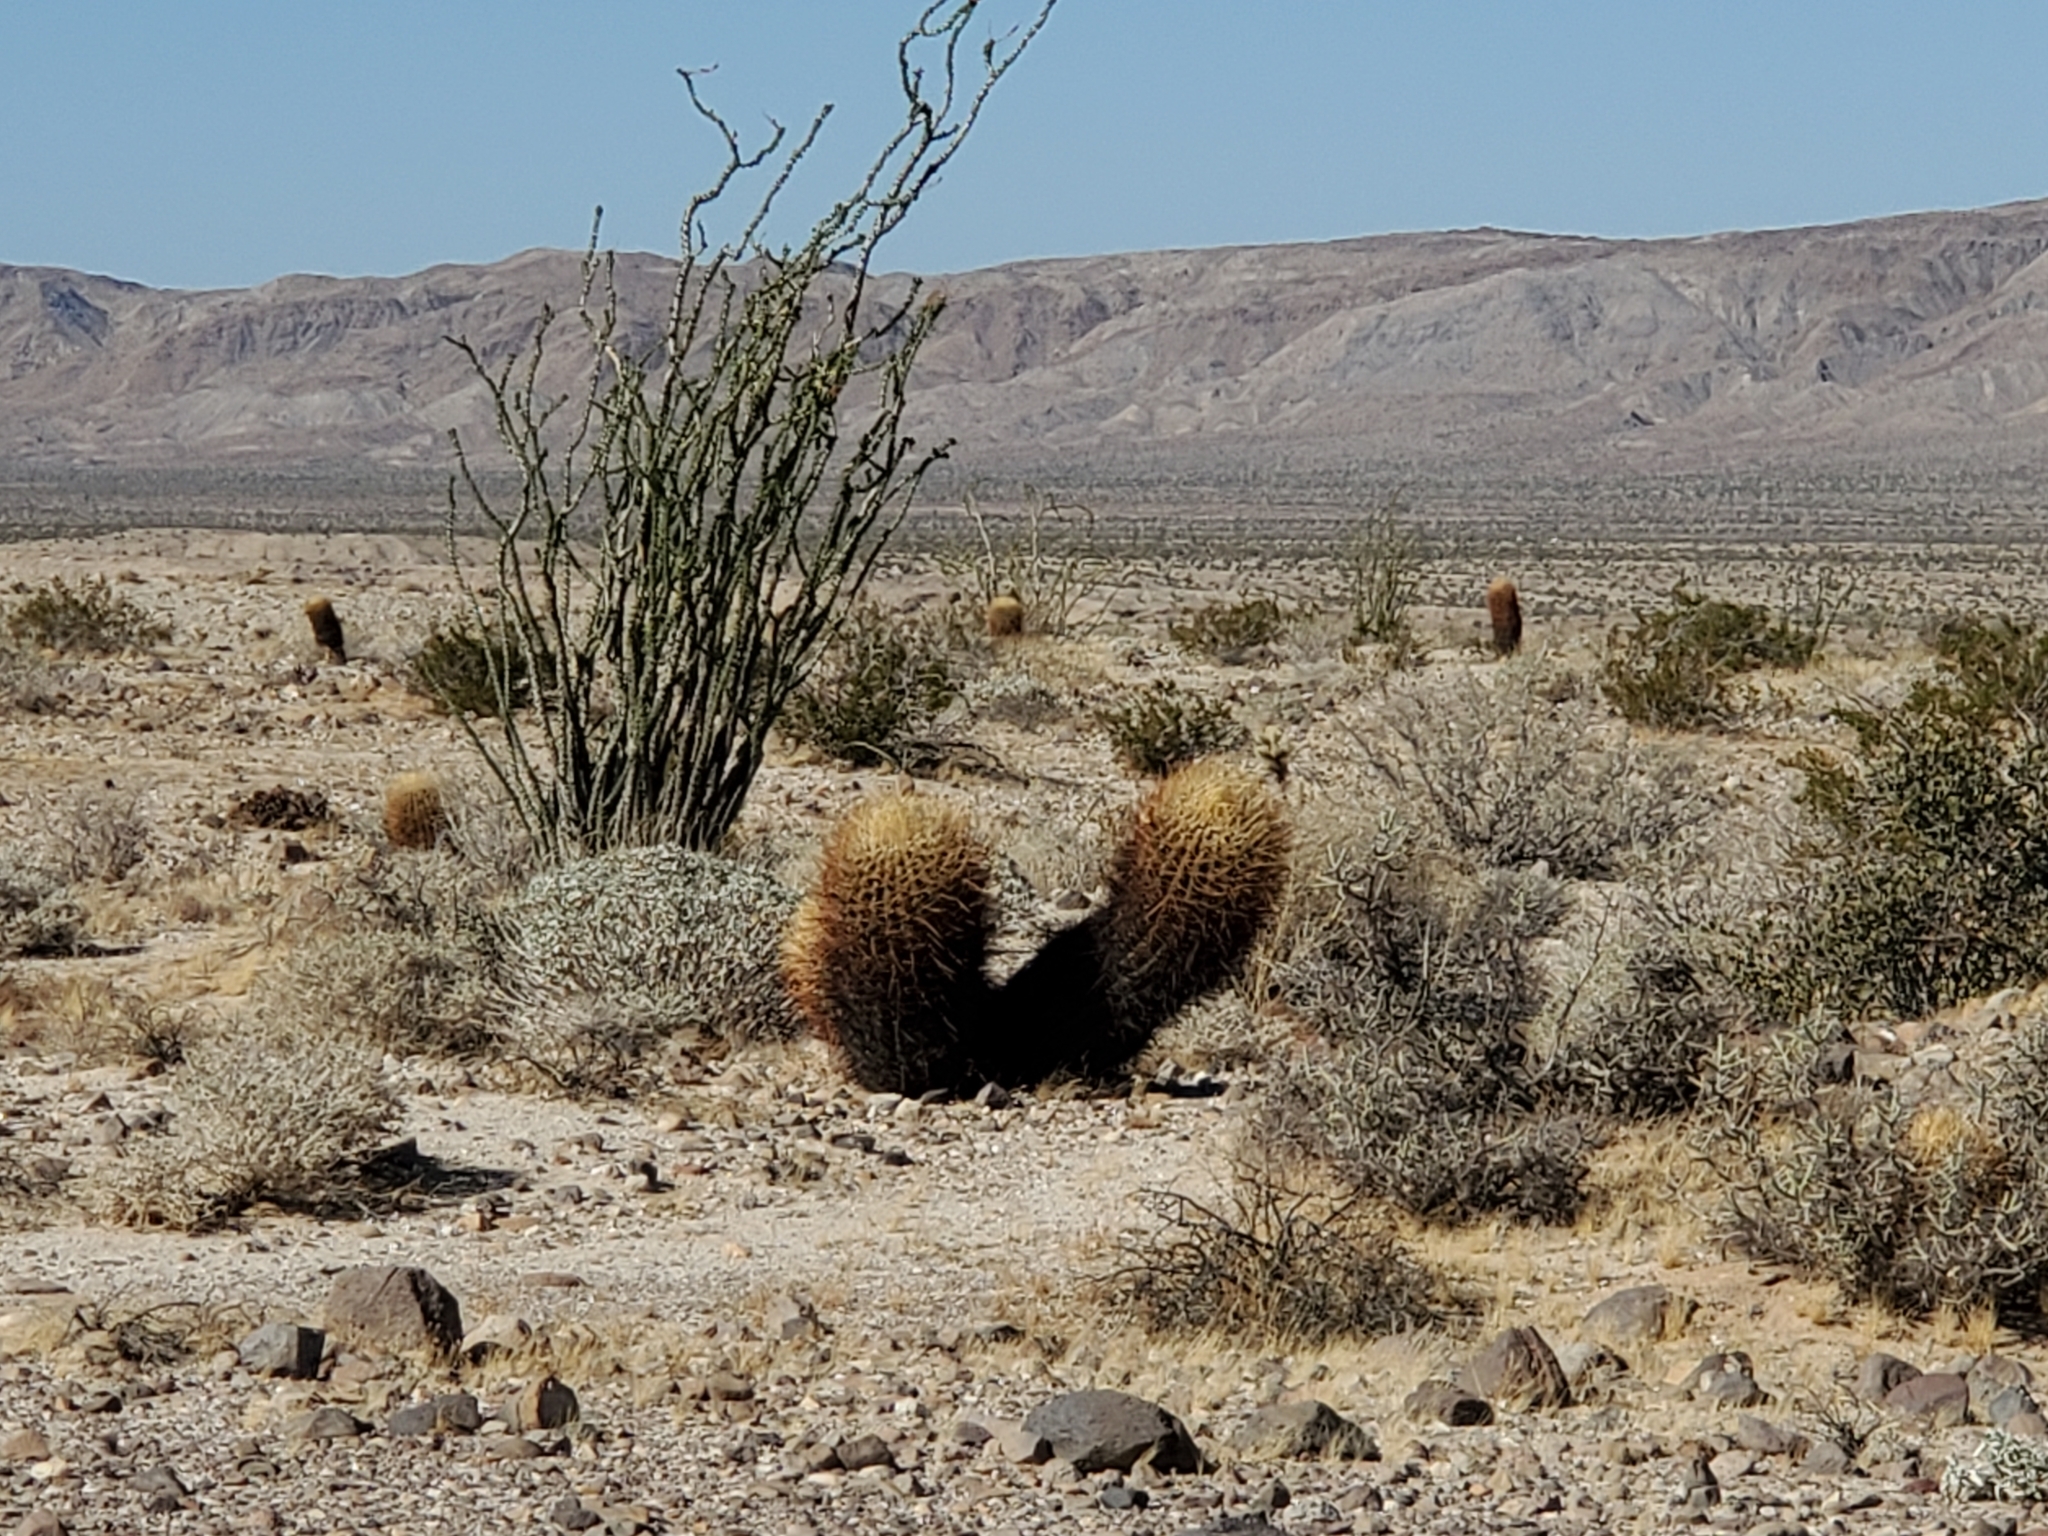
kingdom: Plantae
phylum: Tracheophyta
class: Magnoliopsida
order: Caryophyllales
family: Cactaceae
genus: Ferocactus
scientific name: Ferocactus cylindraceus
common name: California barrel cactus
